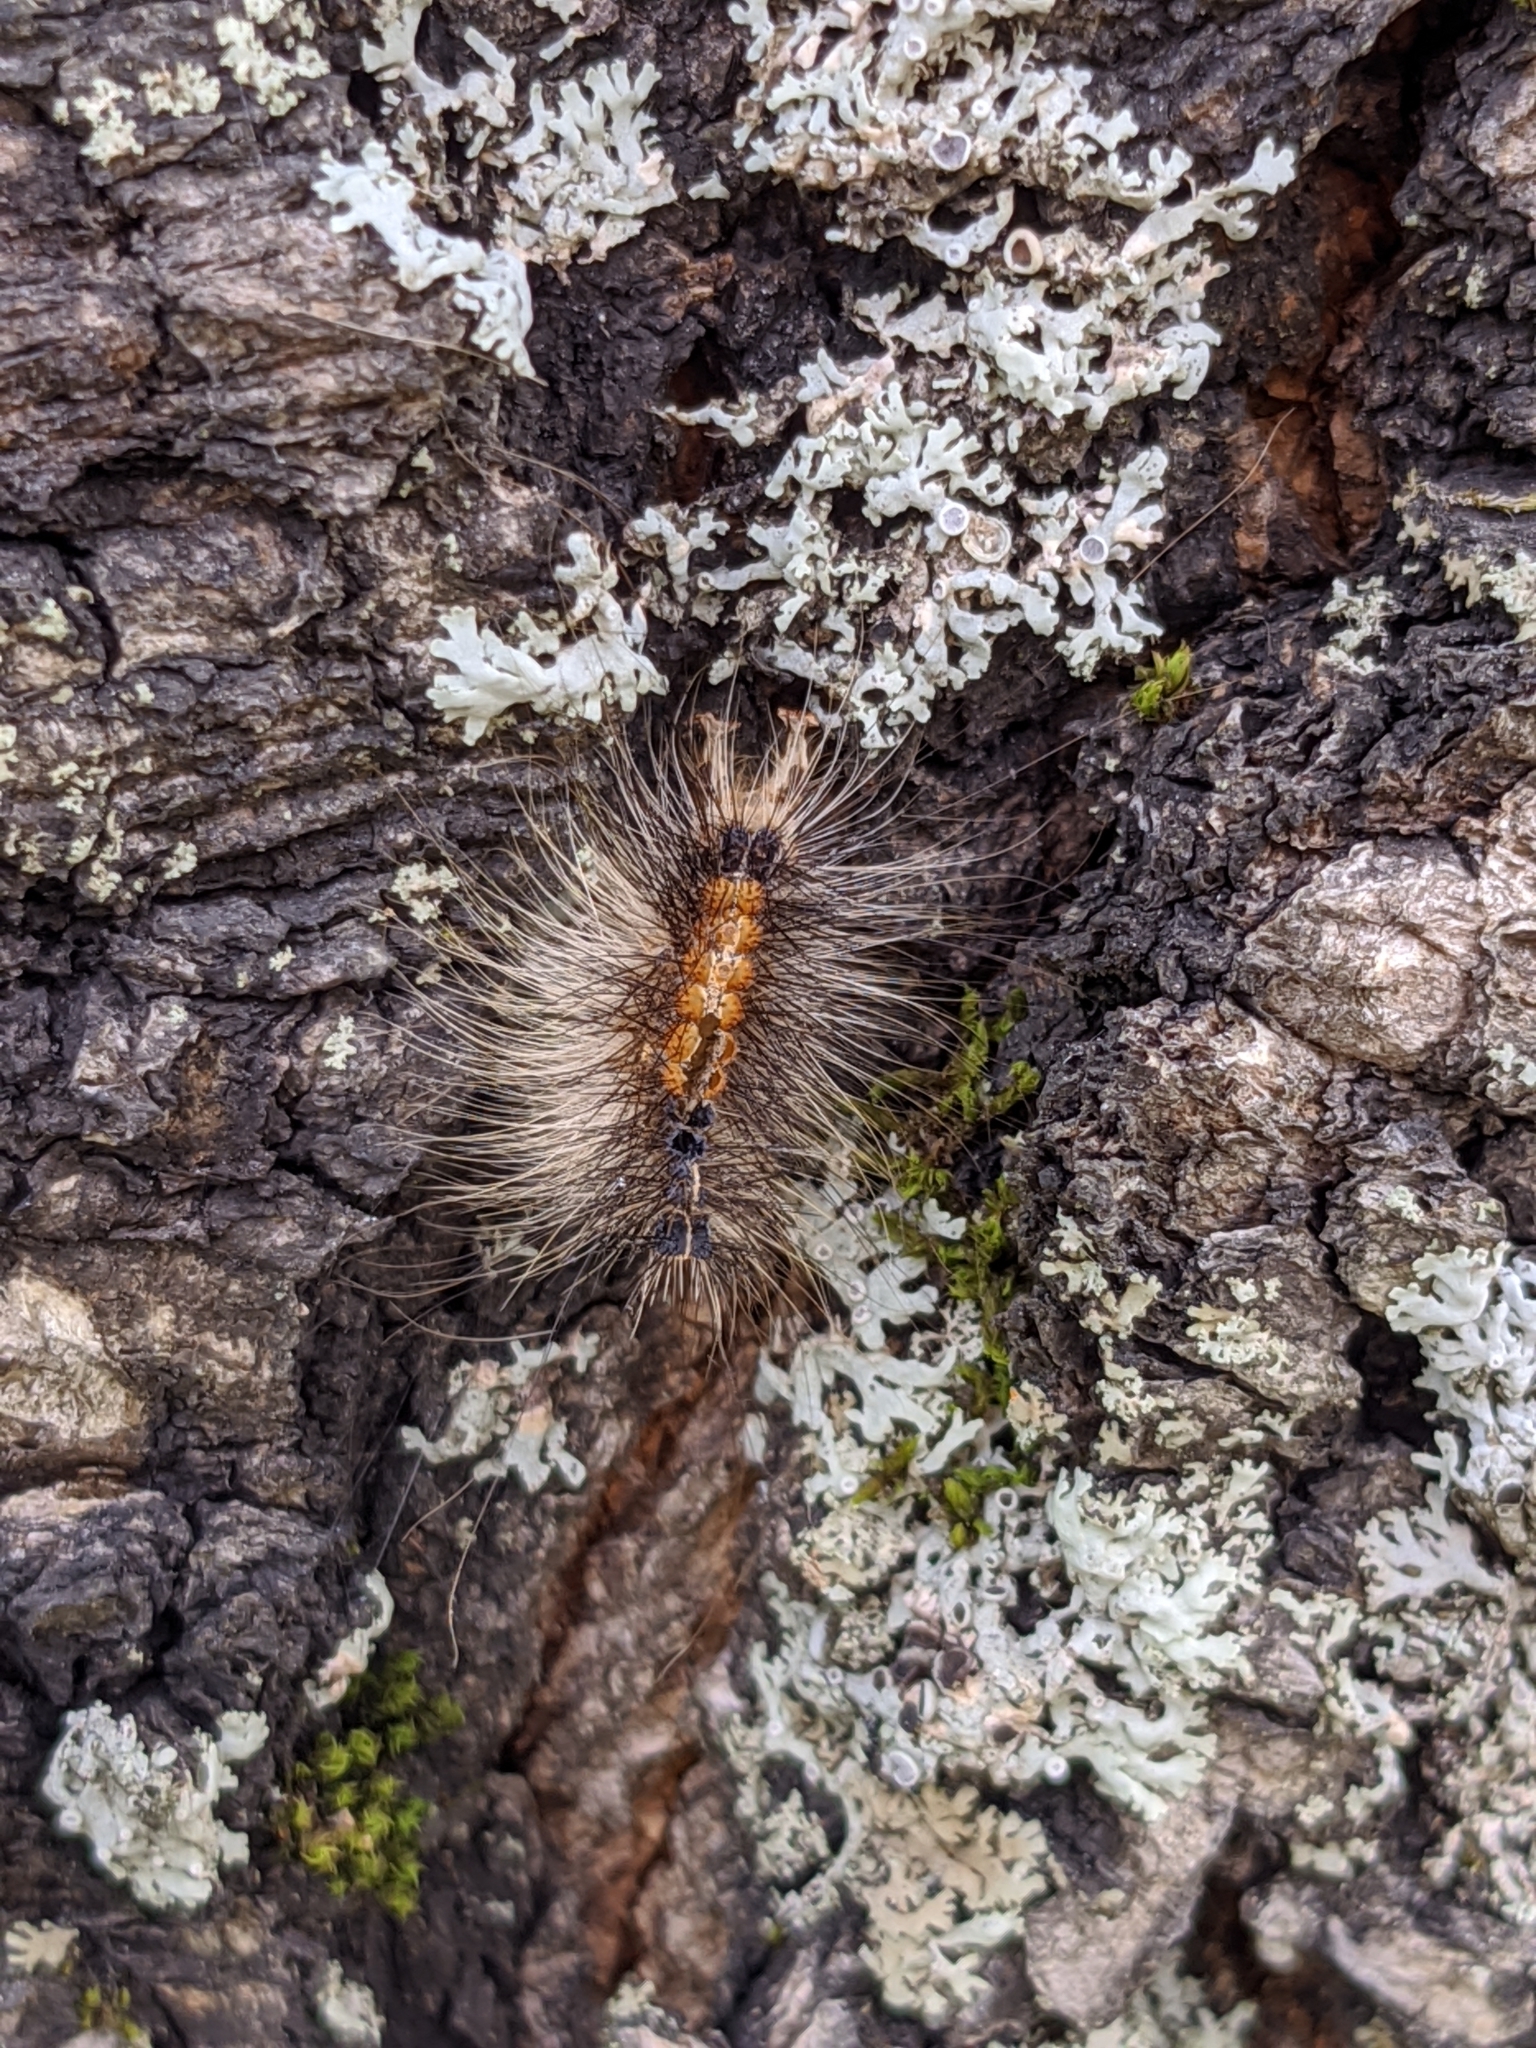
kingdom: Animalia
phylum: Arthropoda
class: Insecta
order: Lepidoptera
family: Erebidae
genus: Lymantria
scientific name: Lymantria dispar
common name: Gypsy moth
